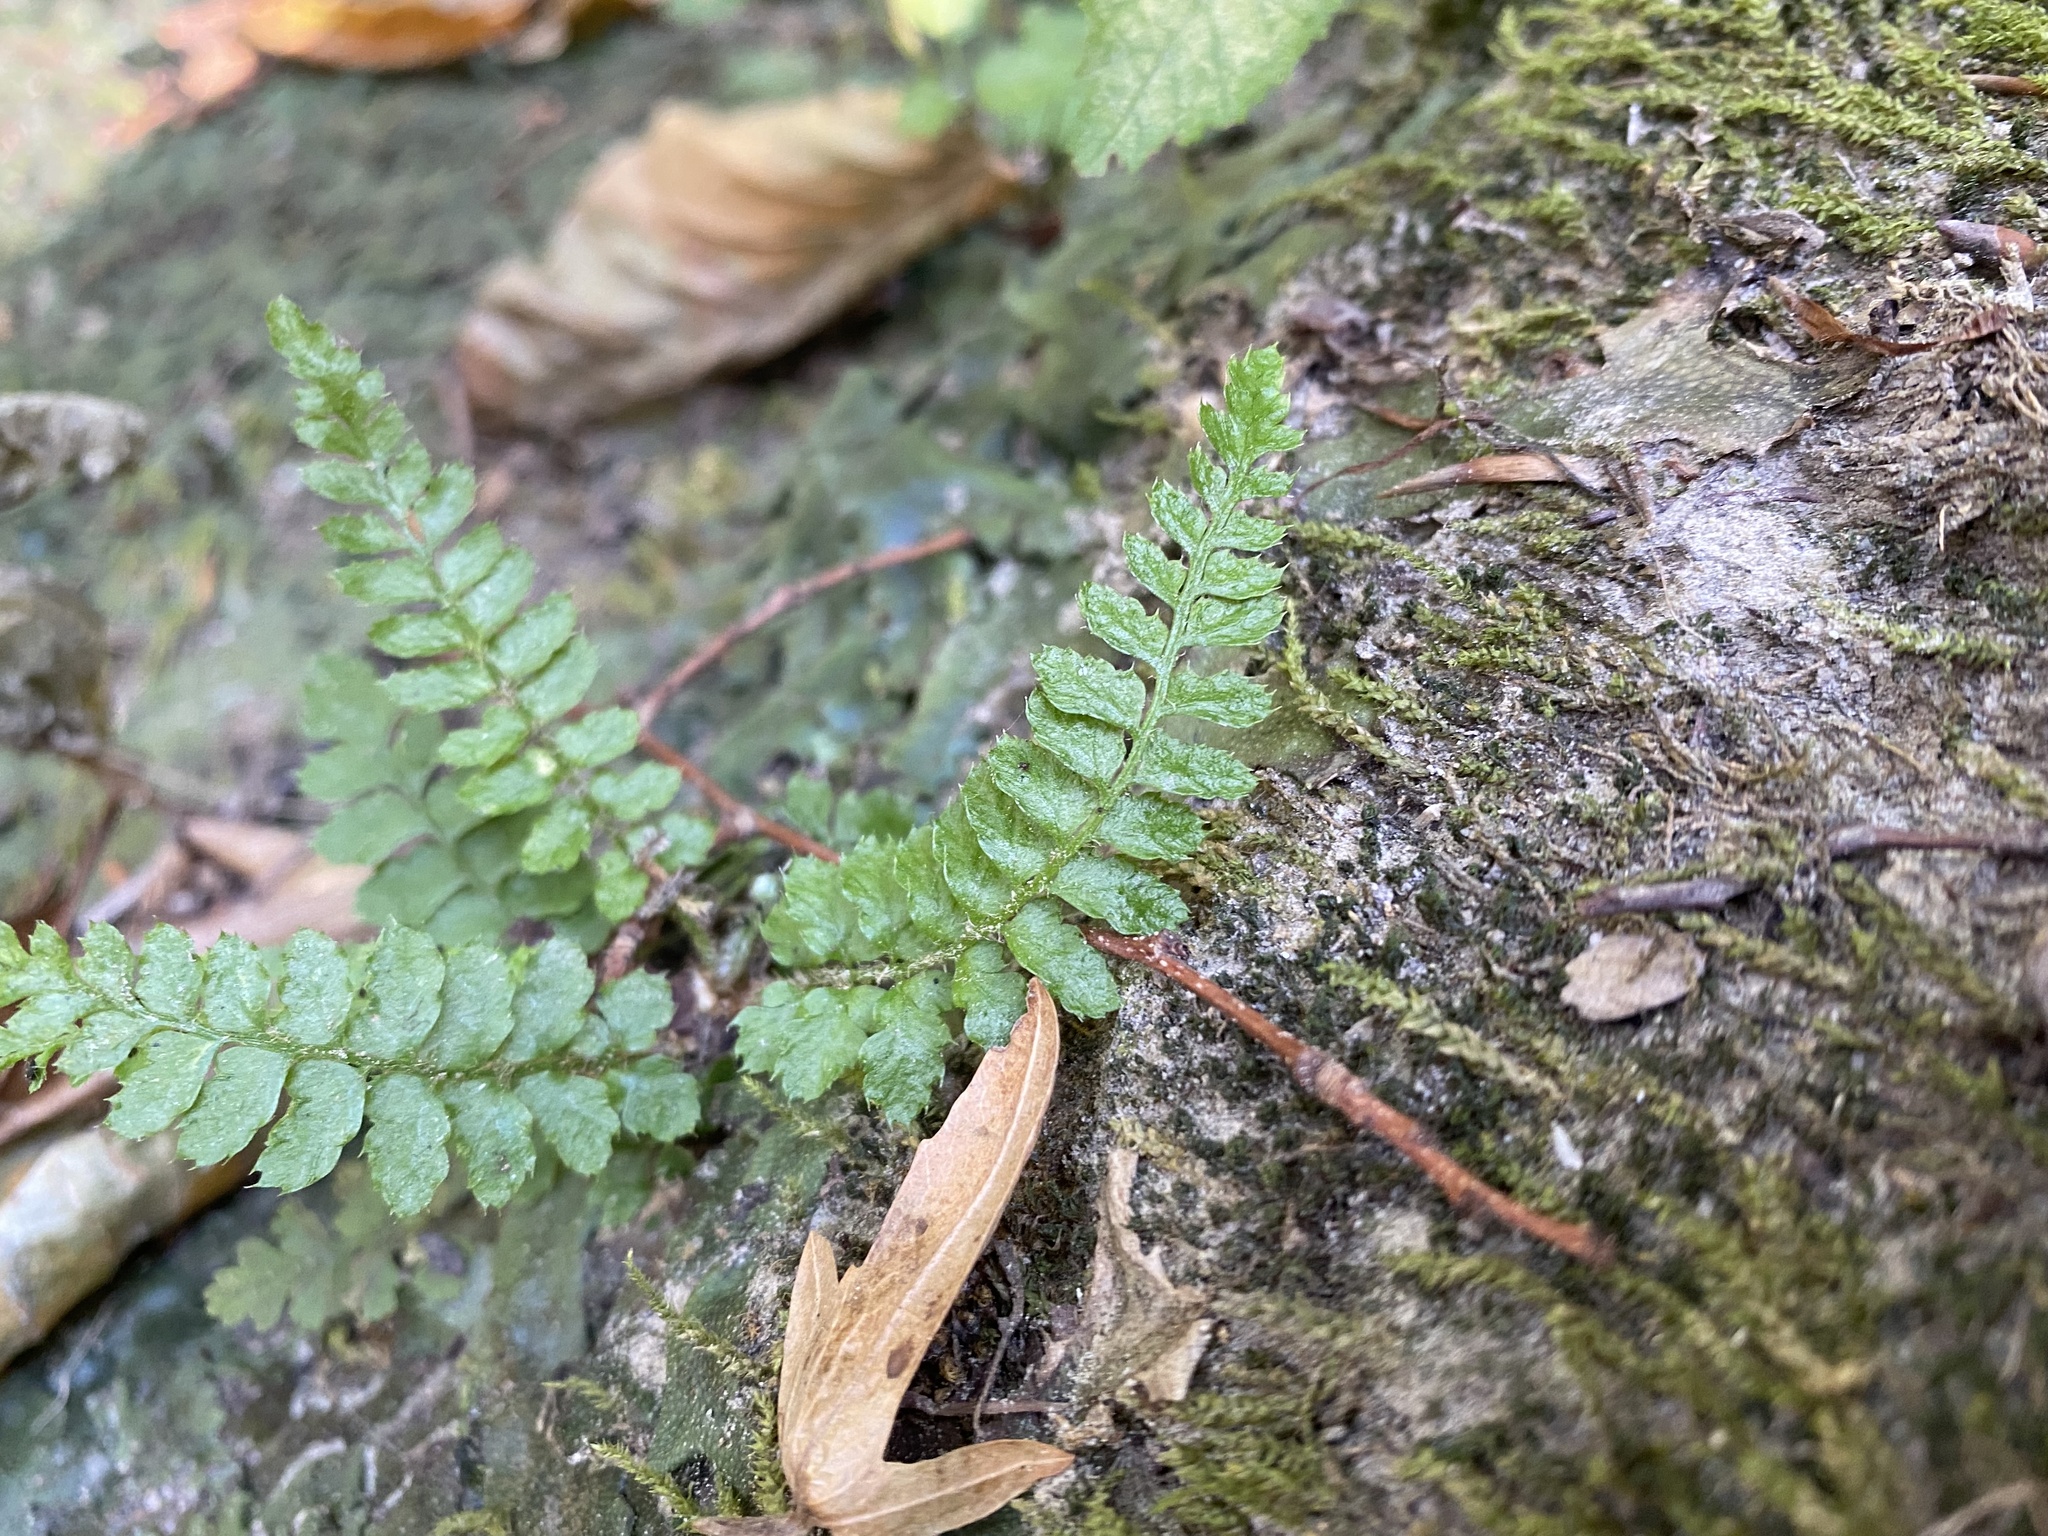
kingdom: Plantae
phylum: Tracheophyta
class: Polypodiopsida
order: Polypodiales
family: Dryopteridaceae
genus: Polystichum
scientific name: Polystichum braunii
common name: Braun's holly fern
